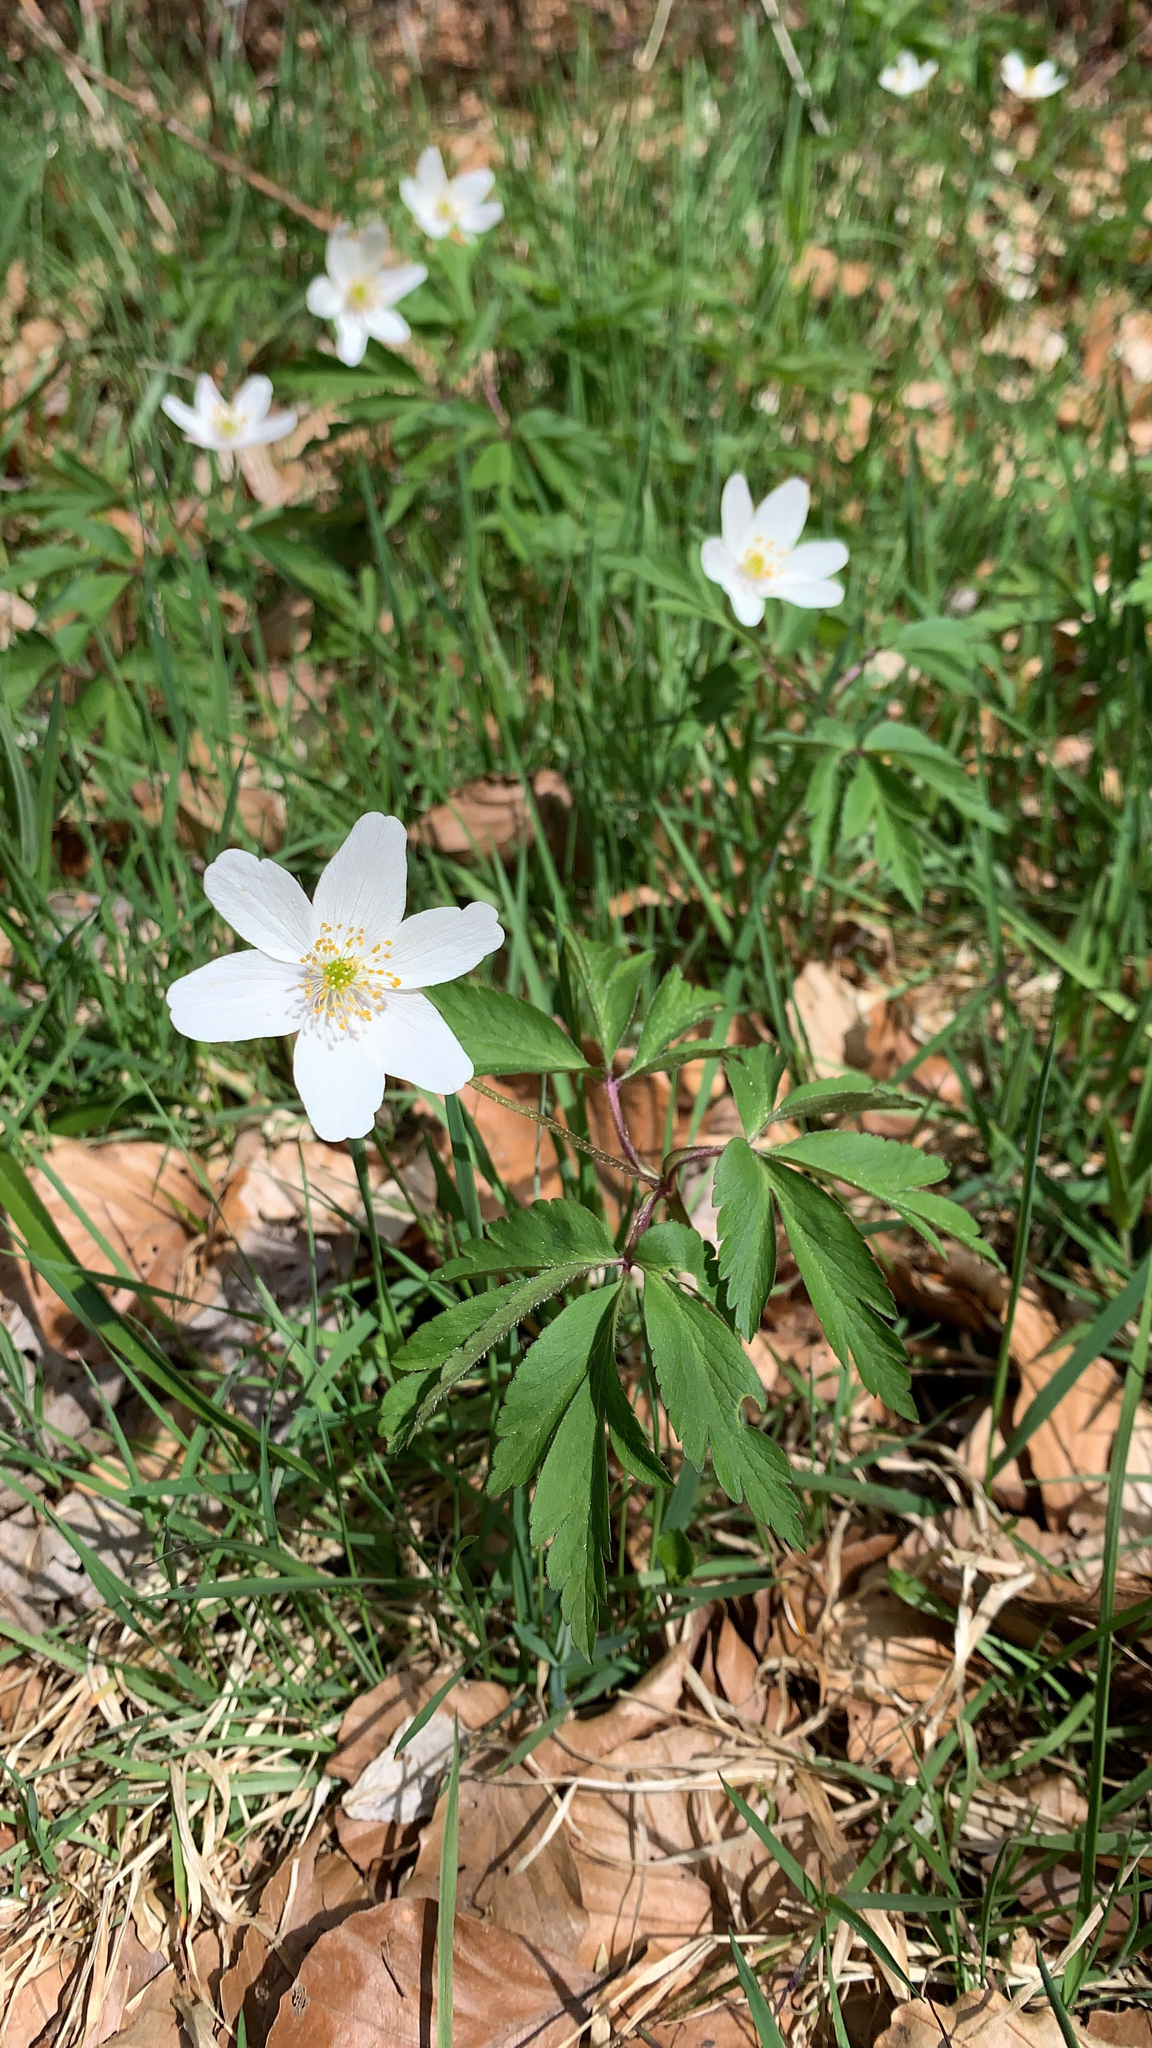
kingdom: Plantae
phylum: Tracheophyta
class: Magnoliopsida
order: Ranunculales
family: Ranunculaceae
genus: Anemone
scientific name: Anemone nemorosa
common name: Wood anemone
